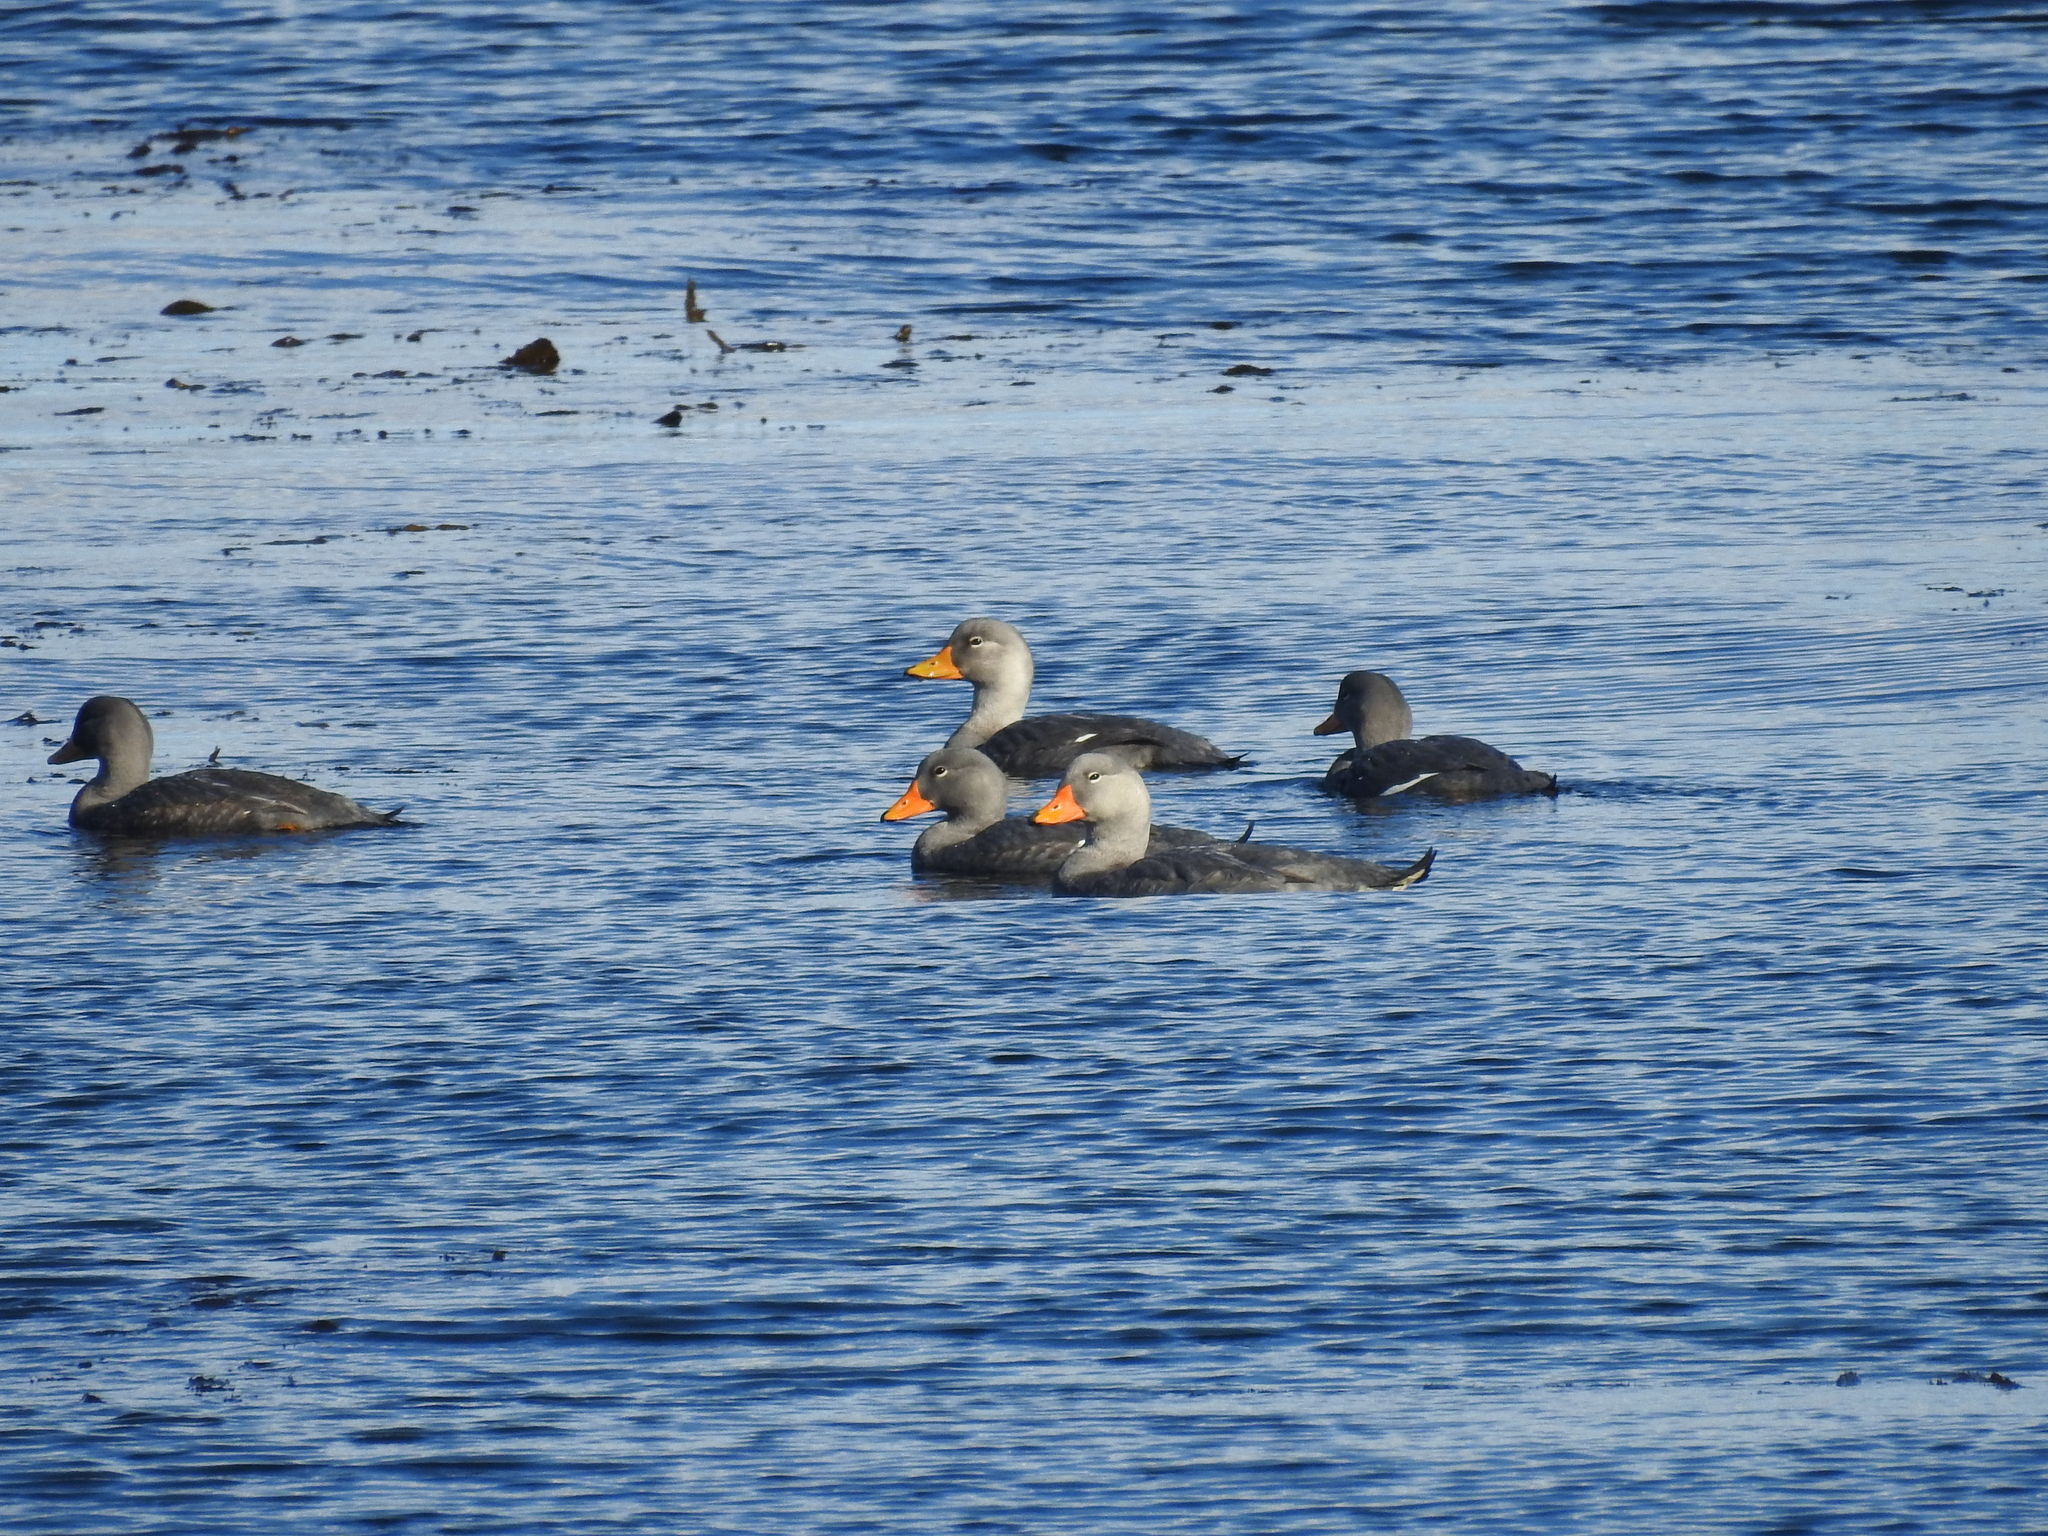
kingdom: Animalia
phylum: Chordata
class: Aves
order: Anseriformes
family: Anatidae
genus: Tachyeres
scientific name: Tachyeres pteneres
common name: Fuegian steamer duck
